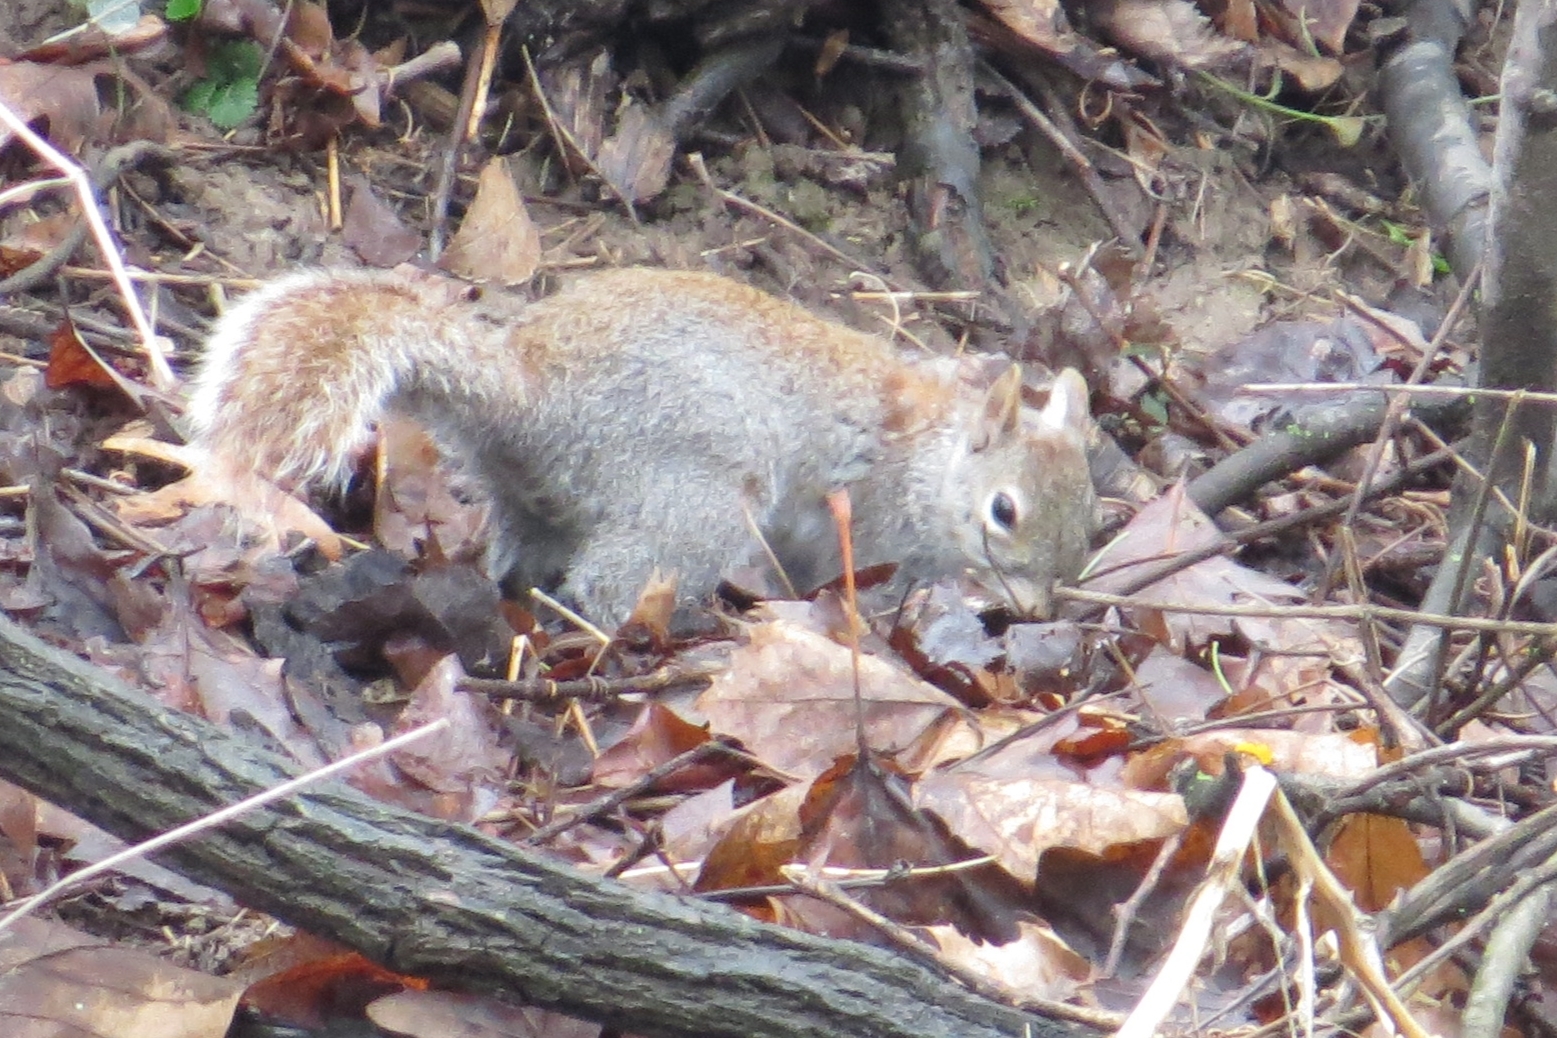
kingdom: Animalia
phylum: Chordata
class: Mammalia
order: Rodentia
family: Sciuridae
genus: Sciurus
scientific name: Sciurus carolinensis
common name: Eastern gray squirrel
